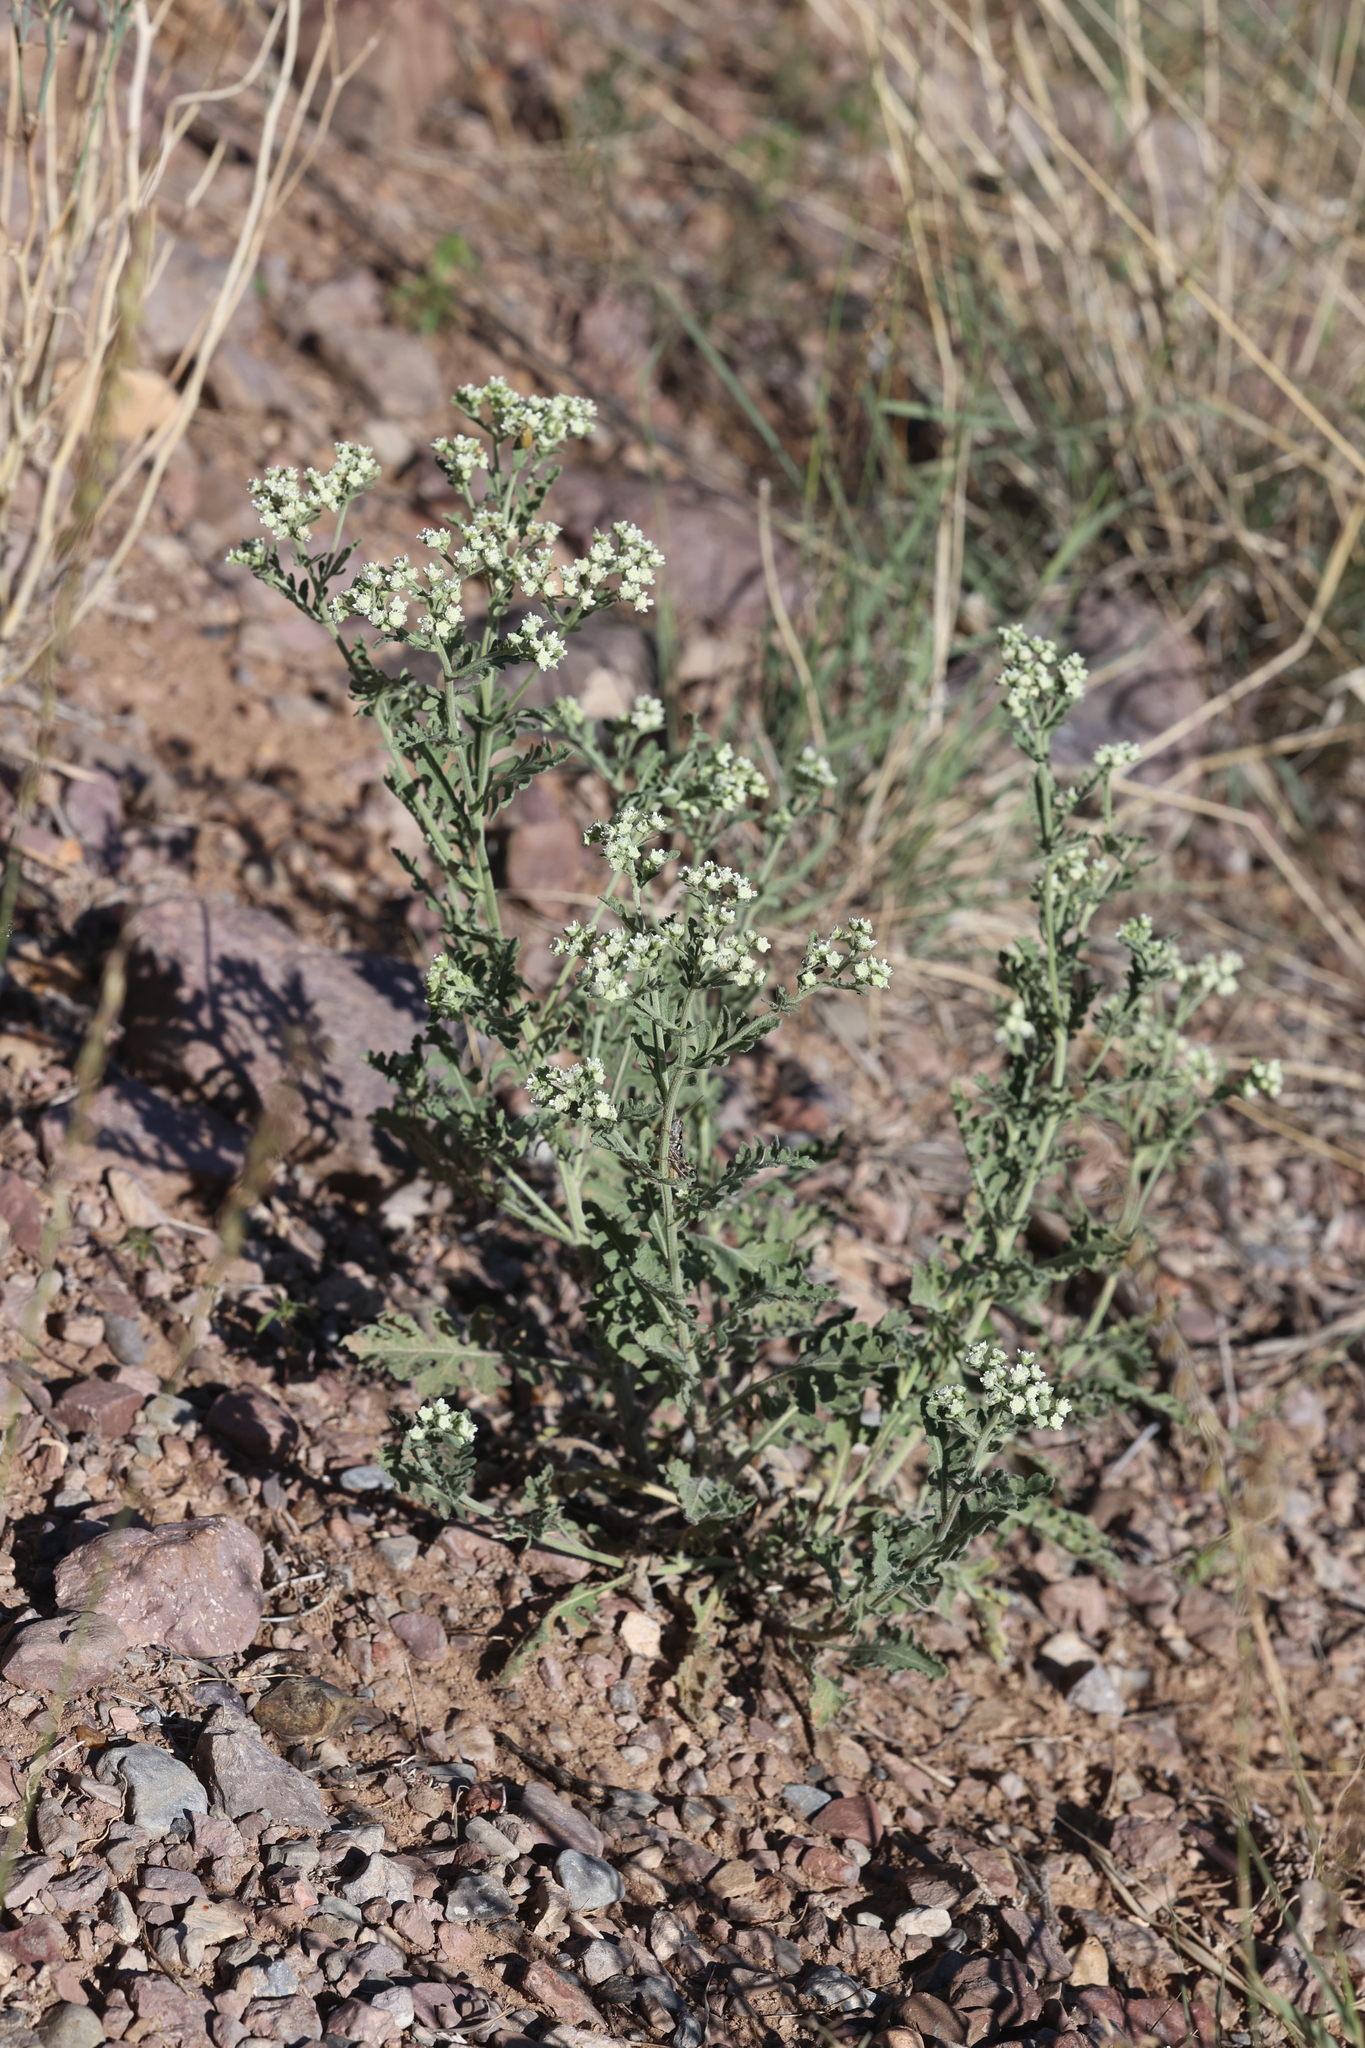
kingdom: Plantae
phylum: Tracheophyta
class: Magnoliopsida
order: Asterales
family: Asteraceae
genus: Parthenium
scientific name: Parthenium confertum
